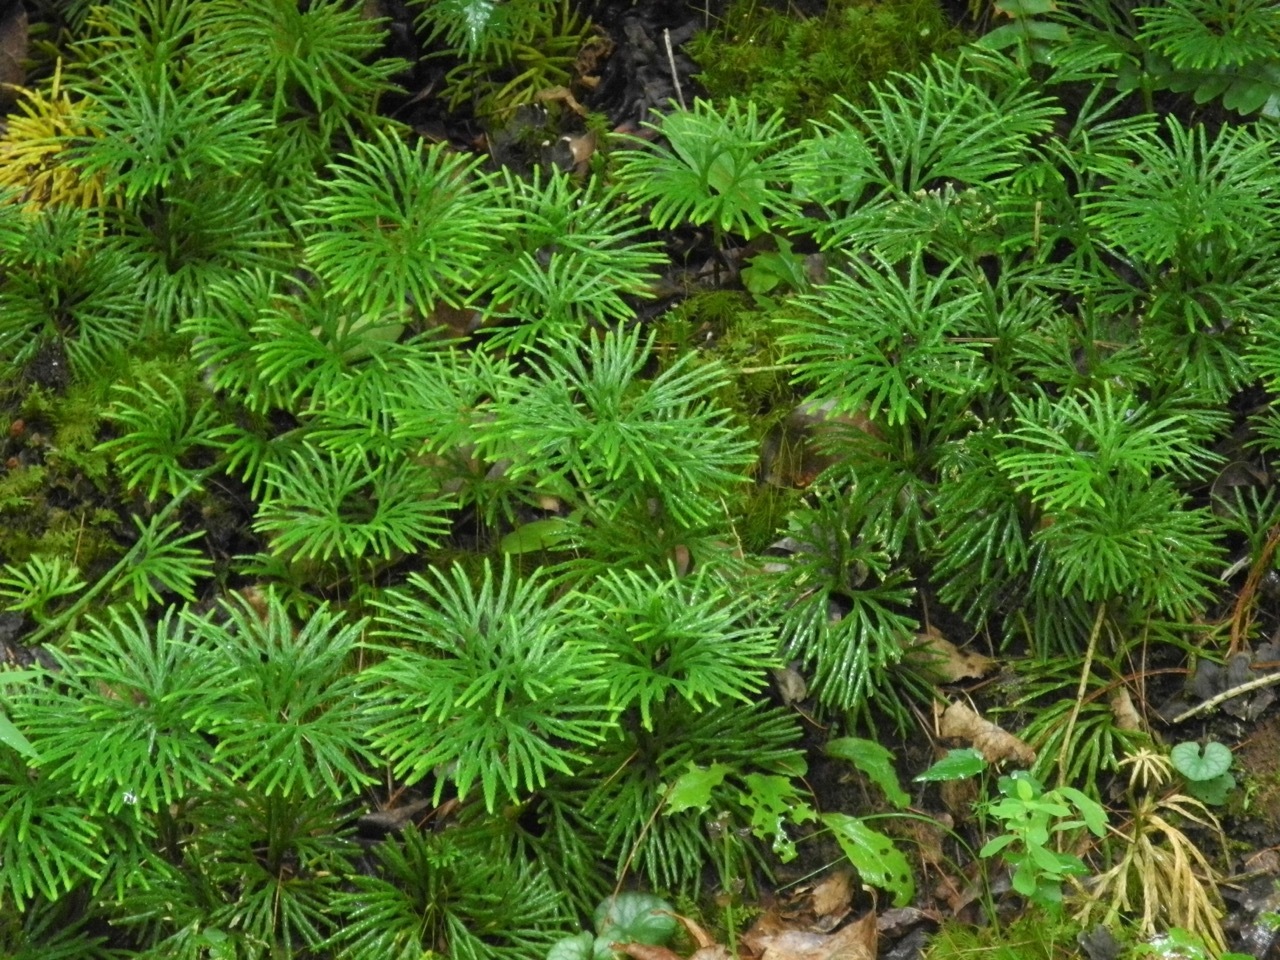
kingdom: Plantae
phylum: Tracheophyta
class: Lycopodiopsida
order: Lycopodiales
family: Lycopodiaceae
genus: Diphasiastrum
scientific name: Diphasiastrum digitatum
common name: Southern running-pine
